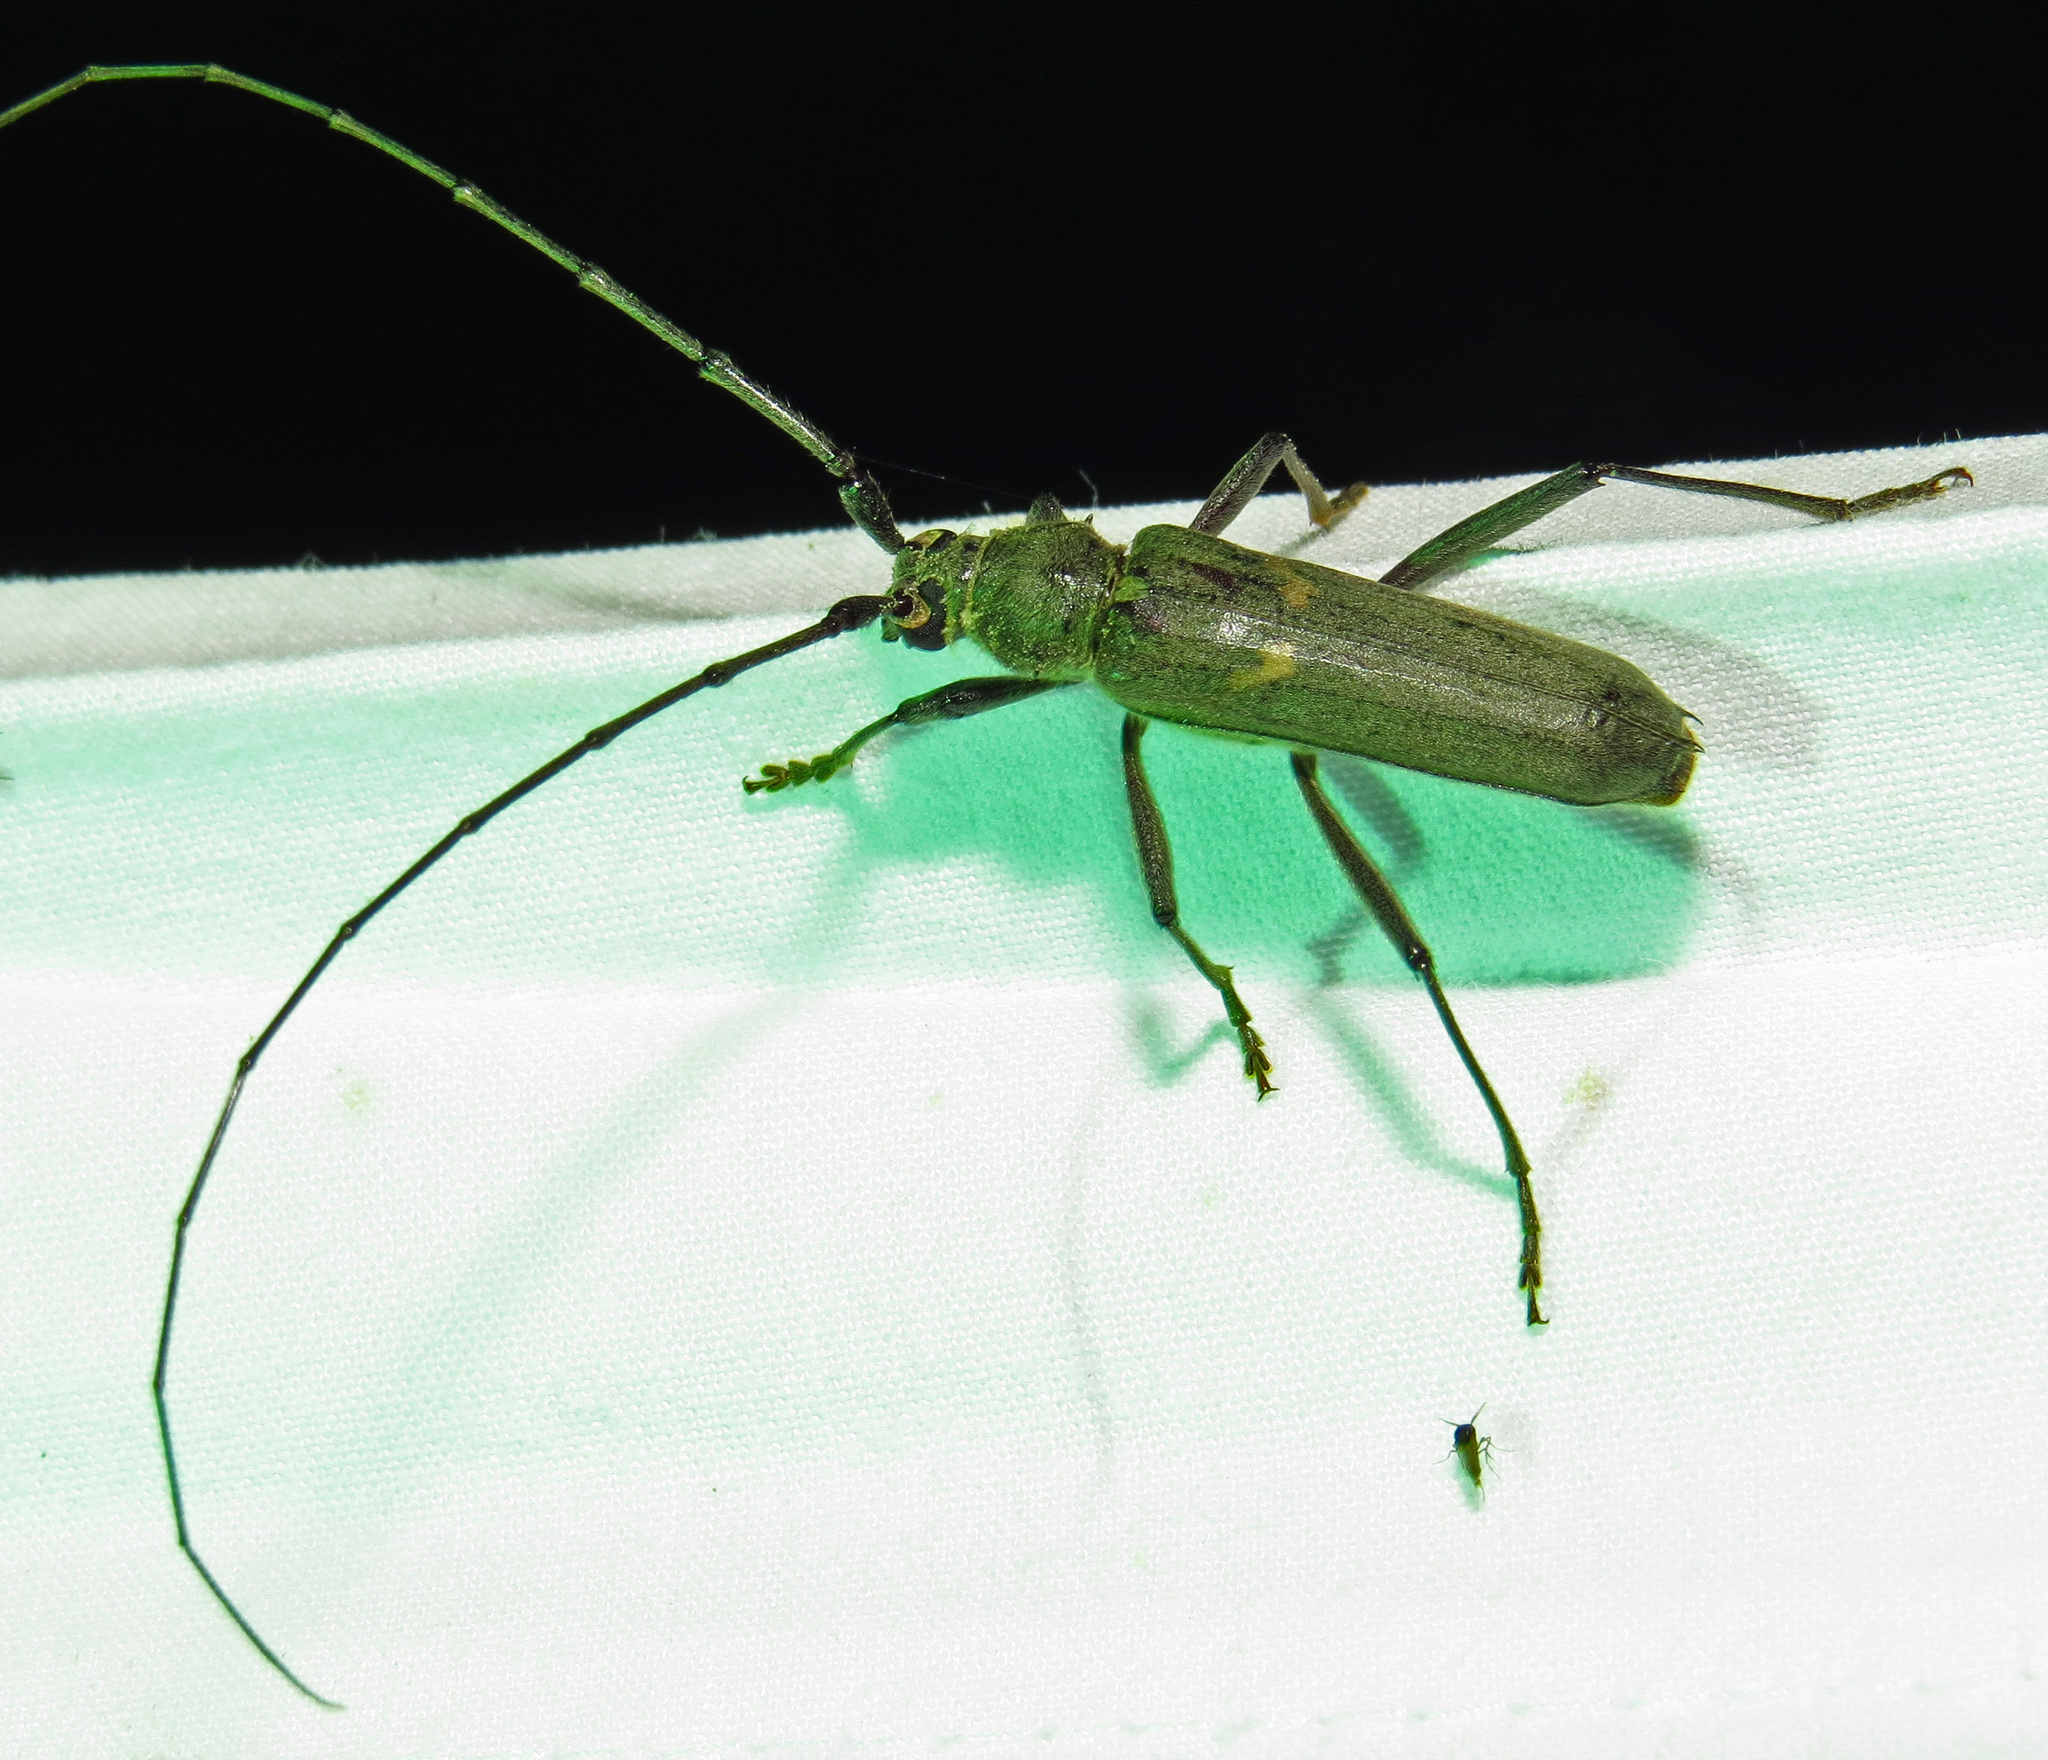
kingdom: Animalia
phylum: Arthropoda
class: Insecta
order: Coleoptera
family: Cerambycidae
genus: Knulliana
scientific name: Knulliana cincta
